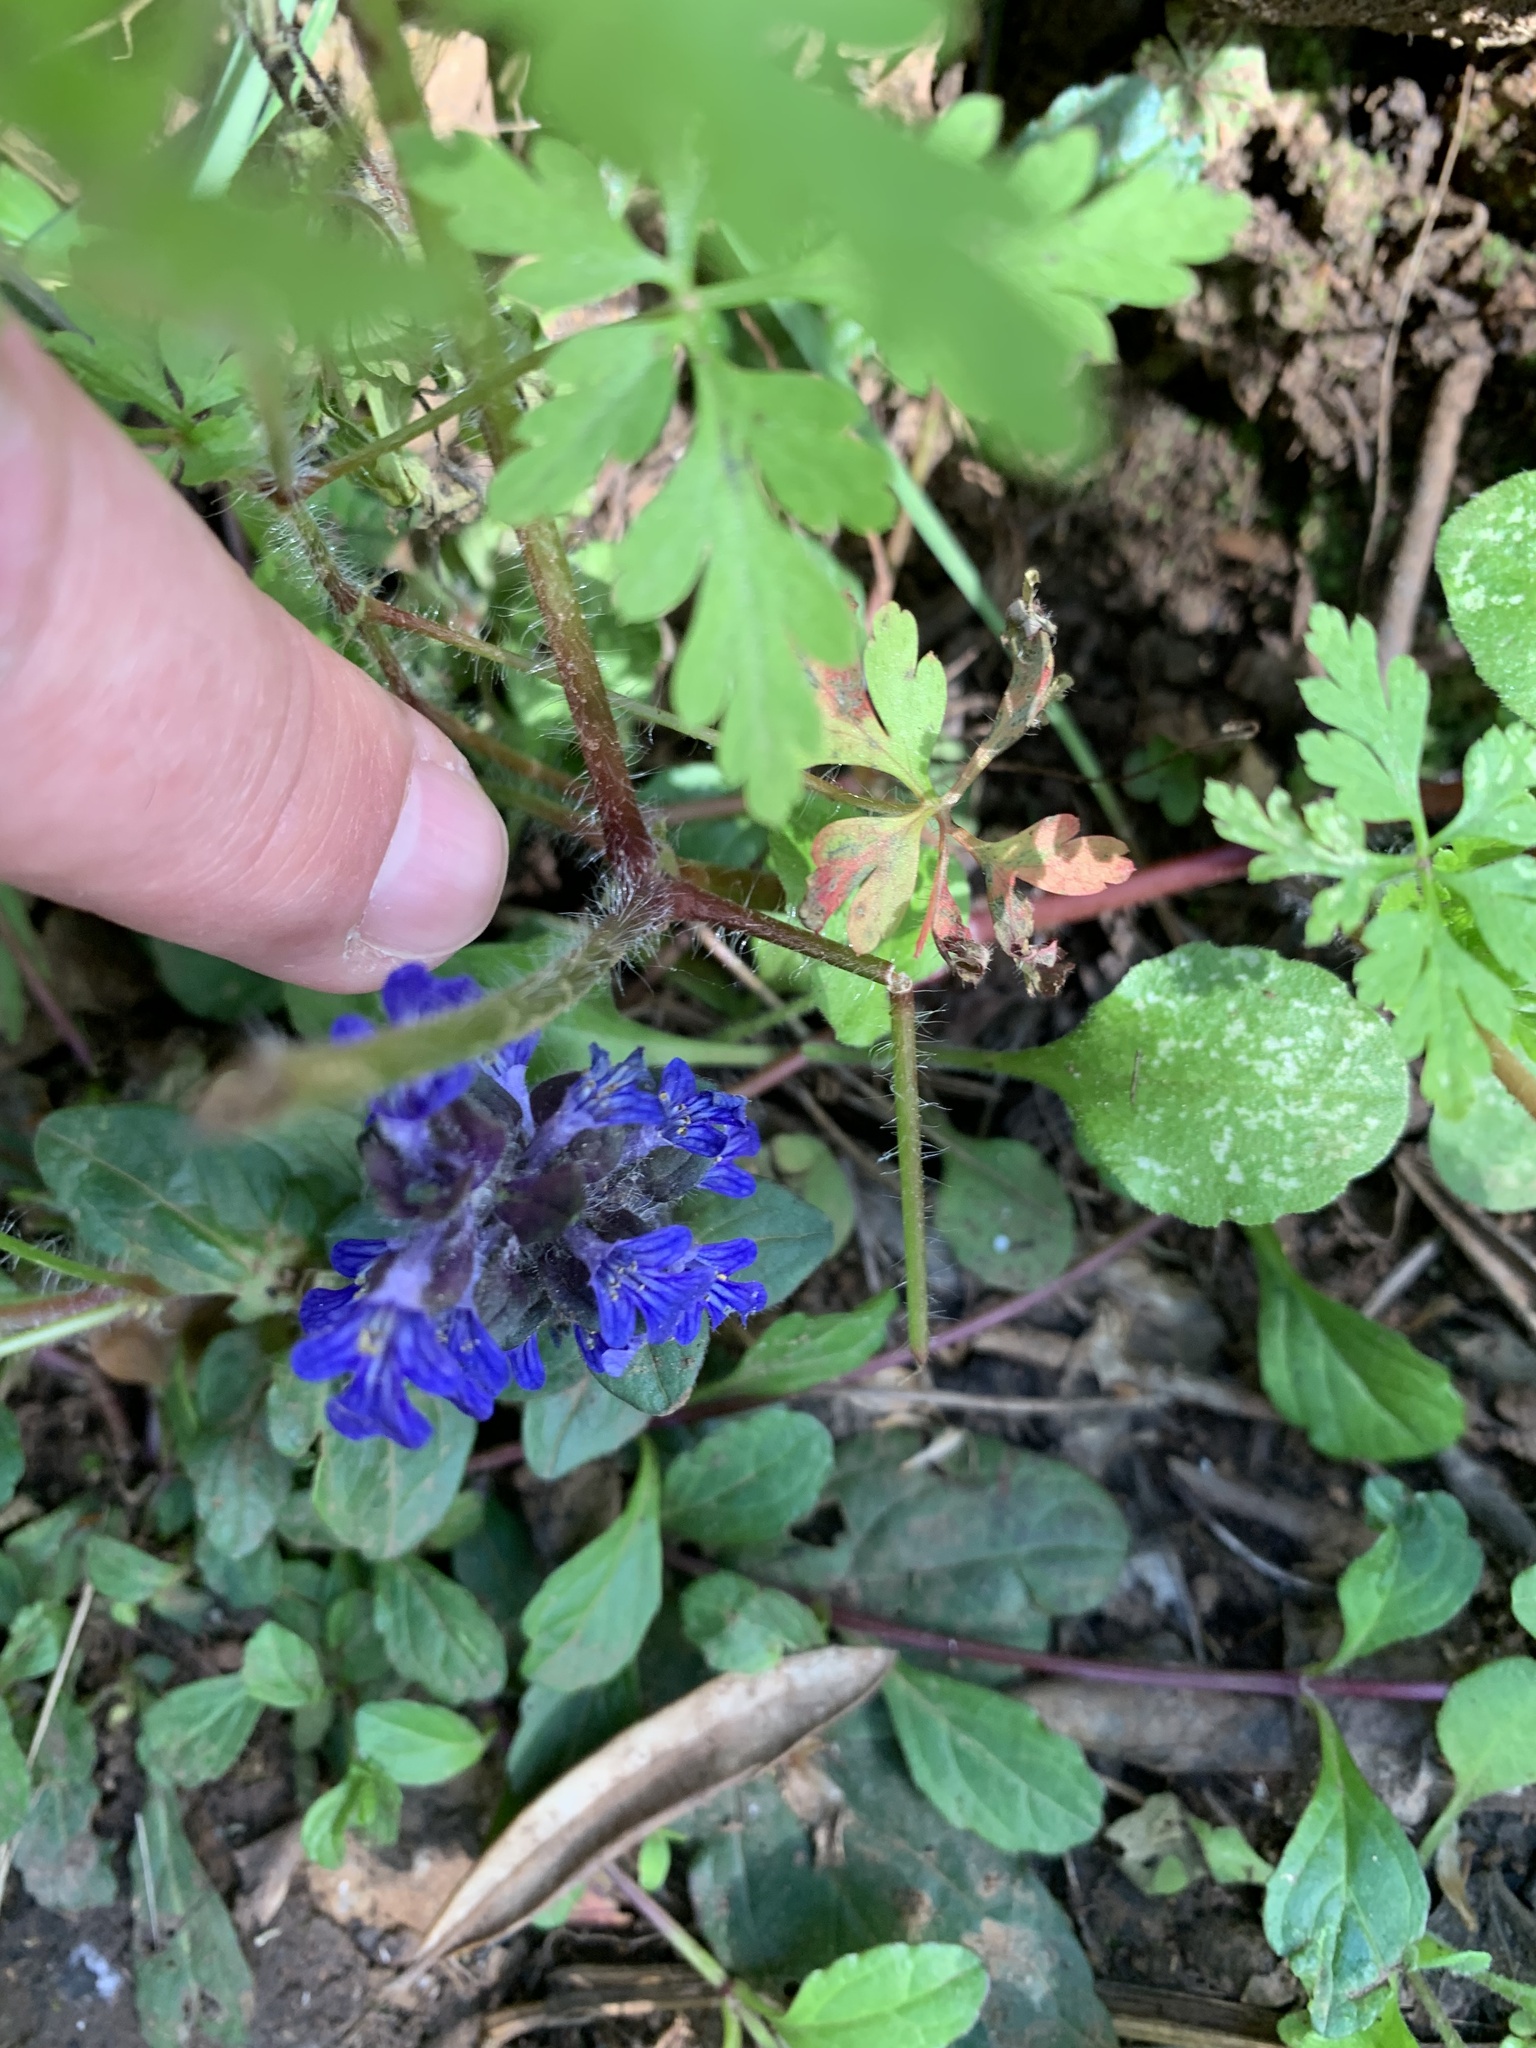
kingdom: Plantae
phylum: Tracheophyta
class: Magnoliopsida
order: Lamiales
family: Lamiaceae
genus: Ajuga
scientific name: Ajuga reptans
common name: Bugle
